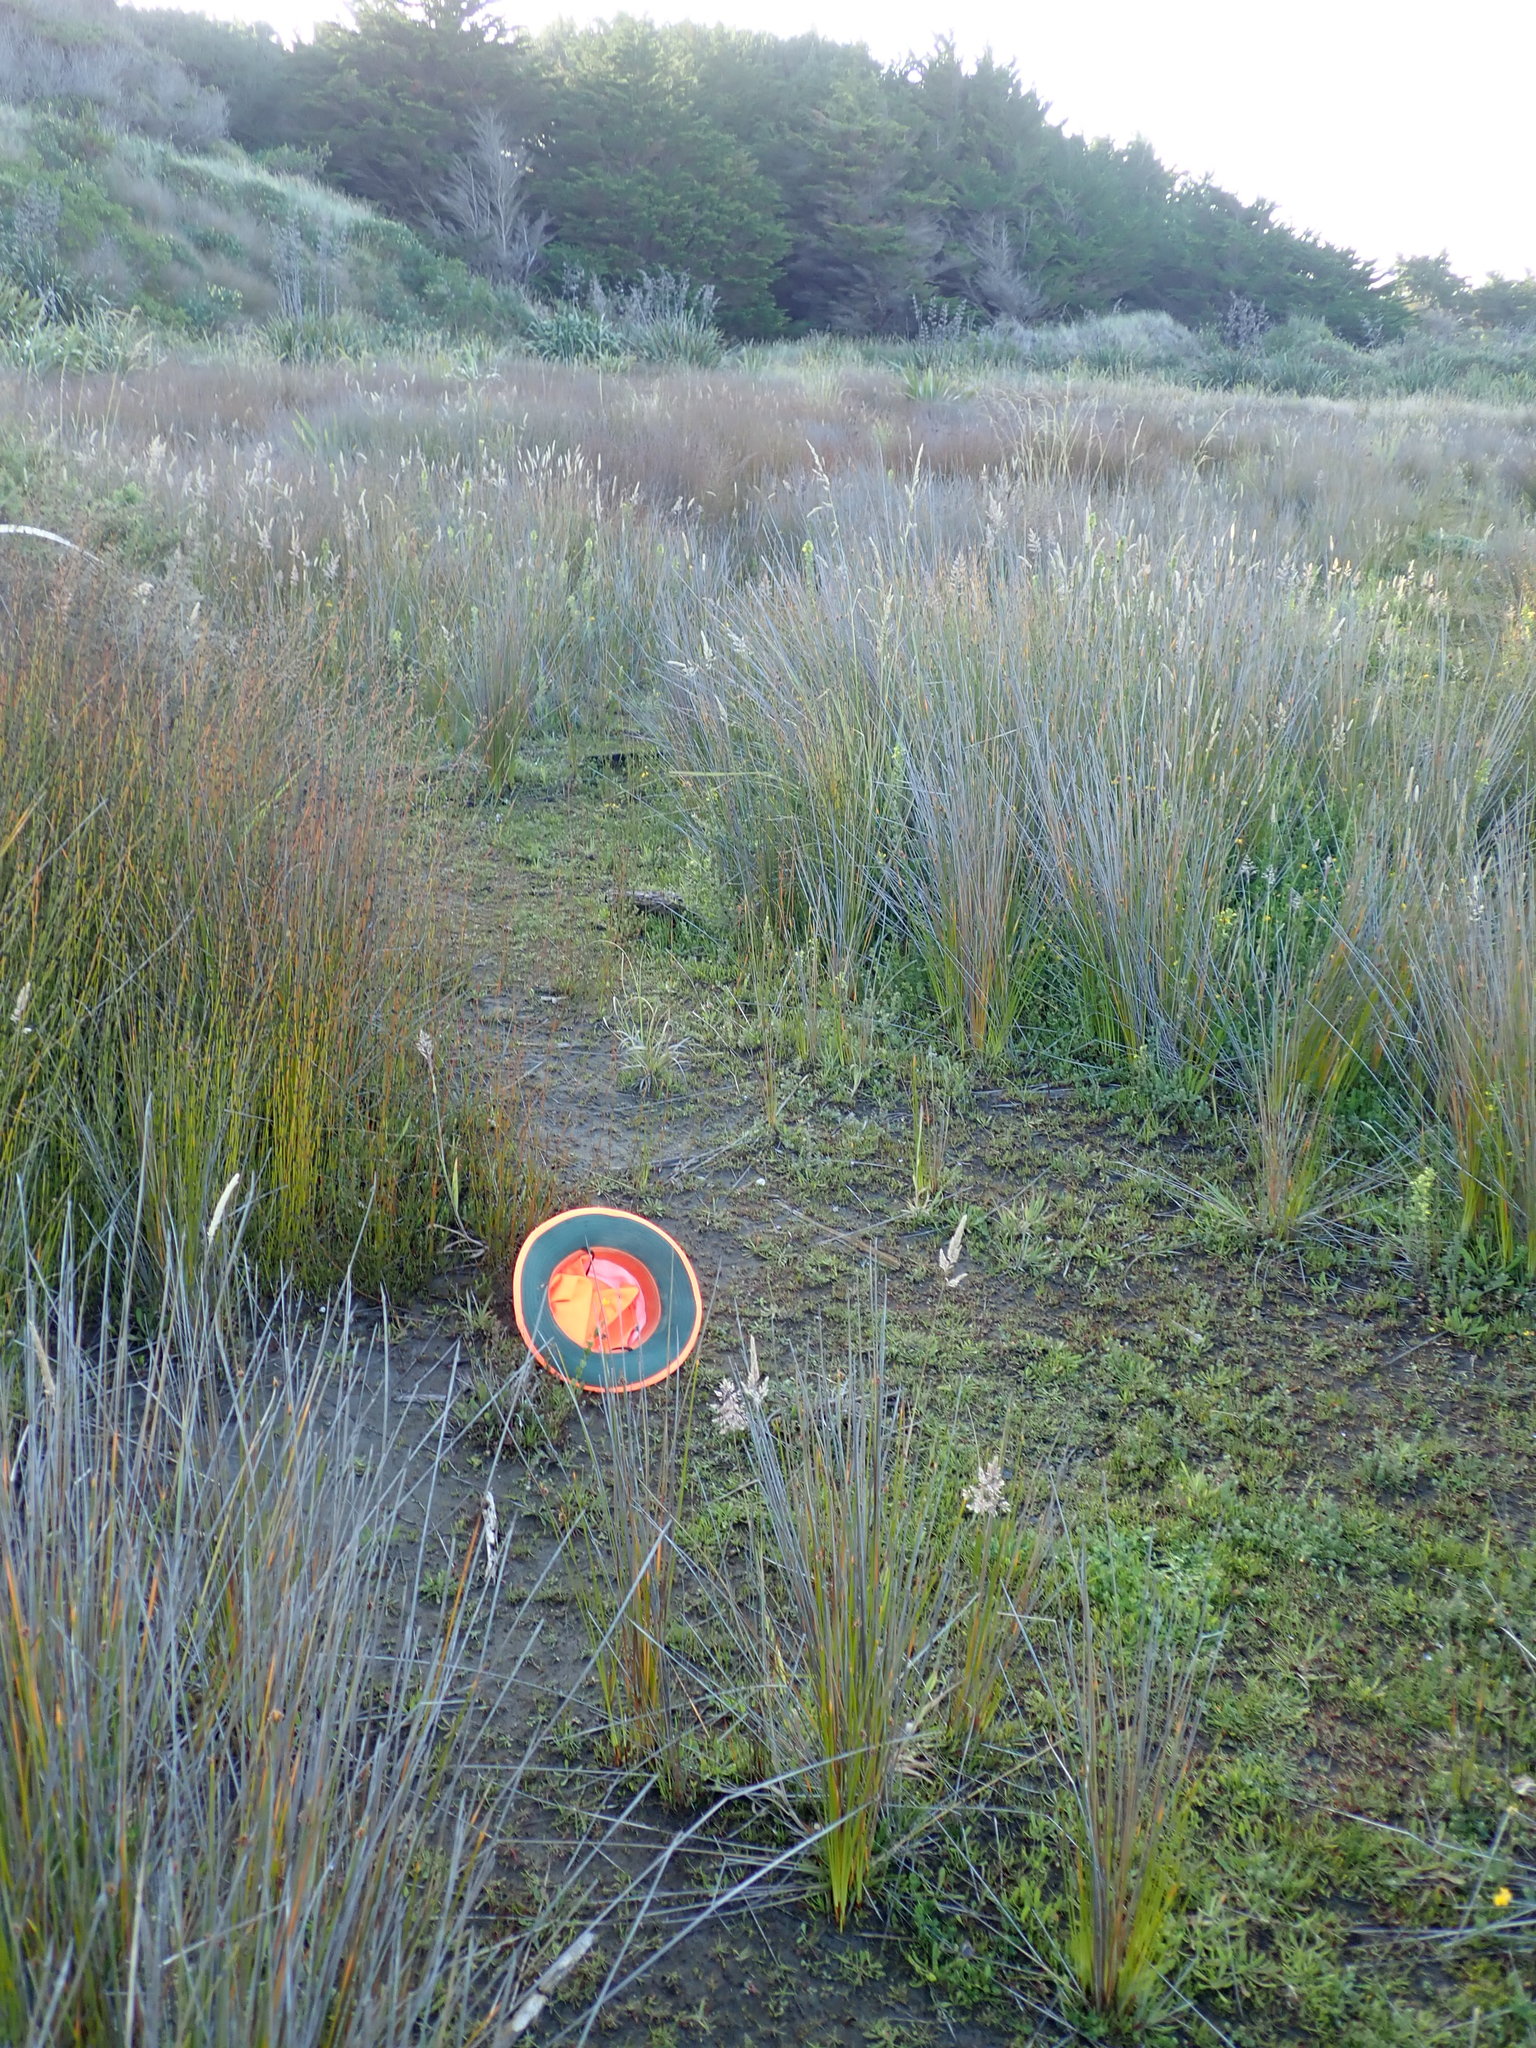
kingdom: Plantae
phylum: Tracheophyta
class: Liliopsida
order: Poales
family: Juncaceae
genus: Juncus
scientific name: Juncus caespiticius
